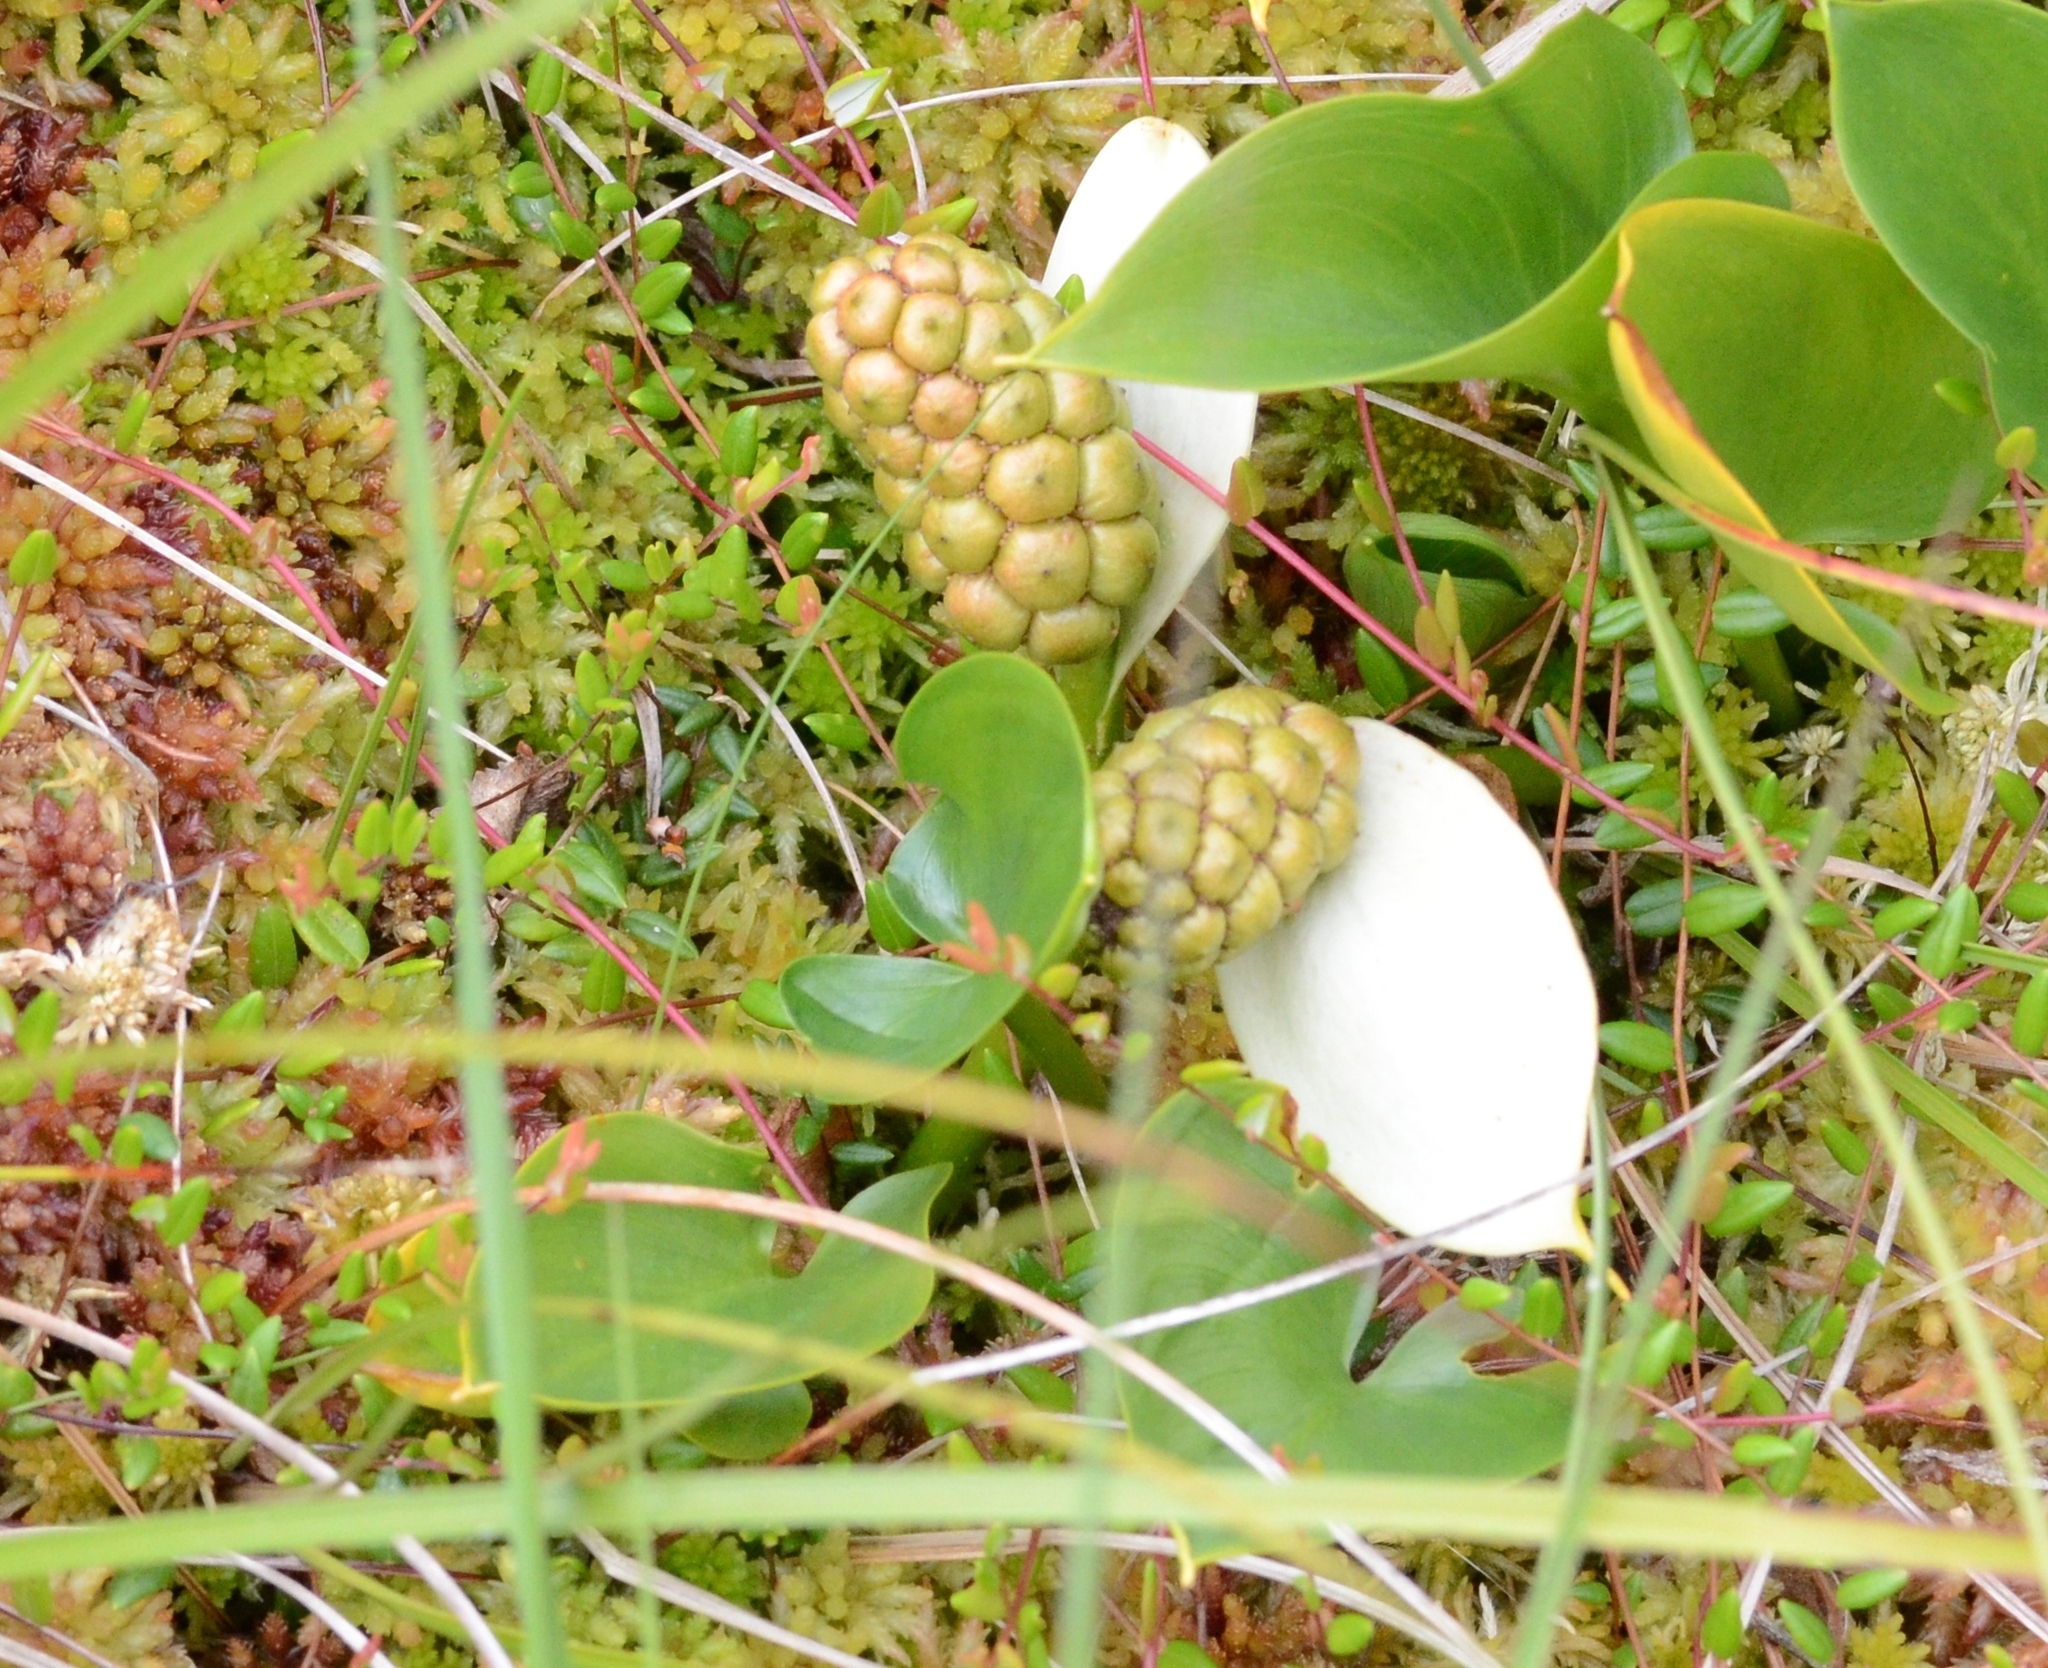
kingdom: Plantae
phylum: Tracheophyta
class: Liliopsida
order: Alismatales
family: Araceae
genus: Calla
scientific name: Calla palustris
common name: Bog arum
